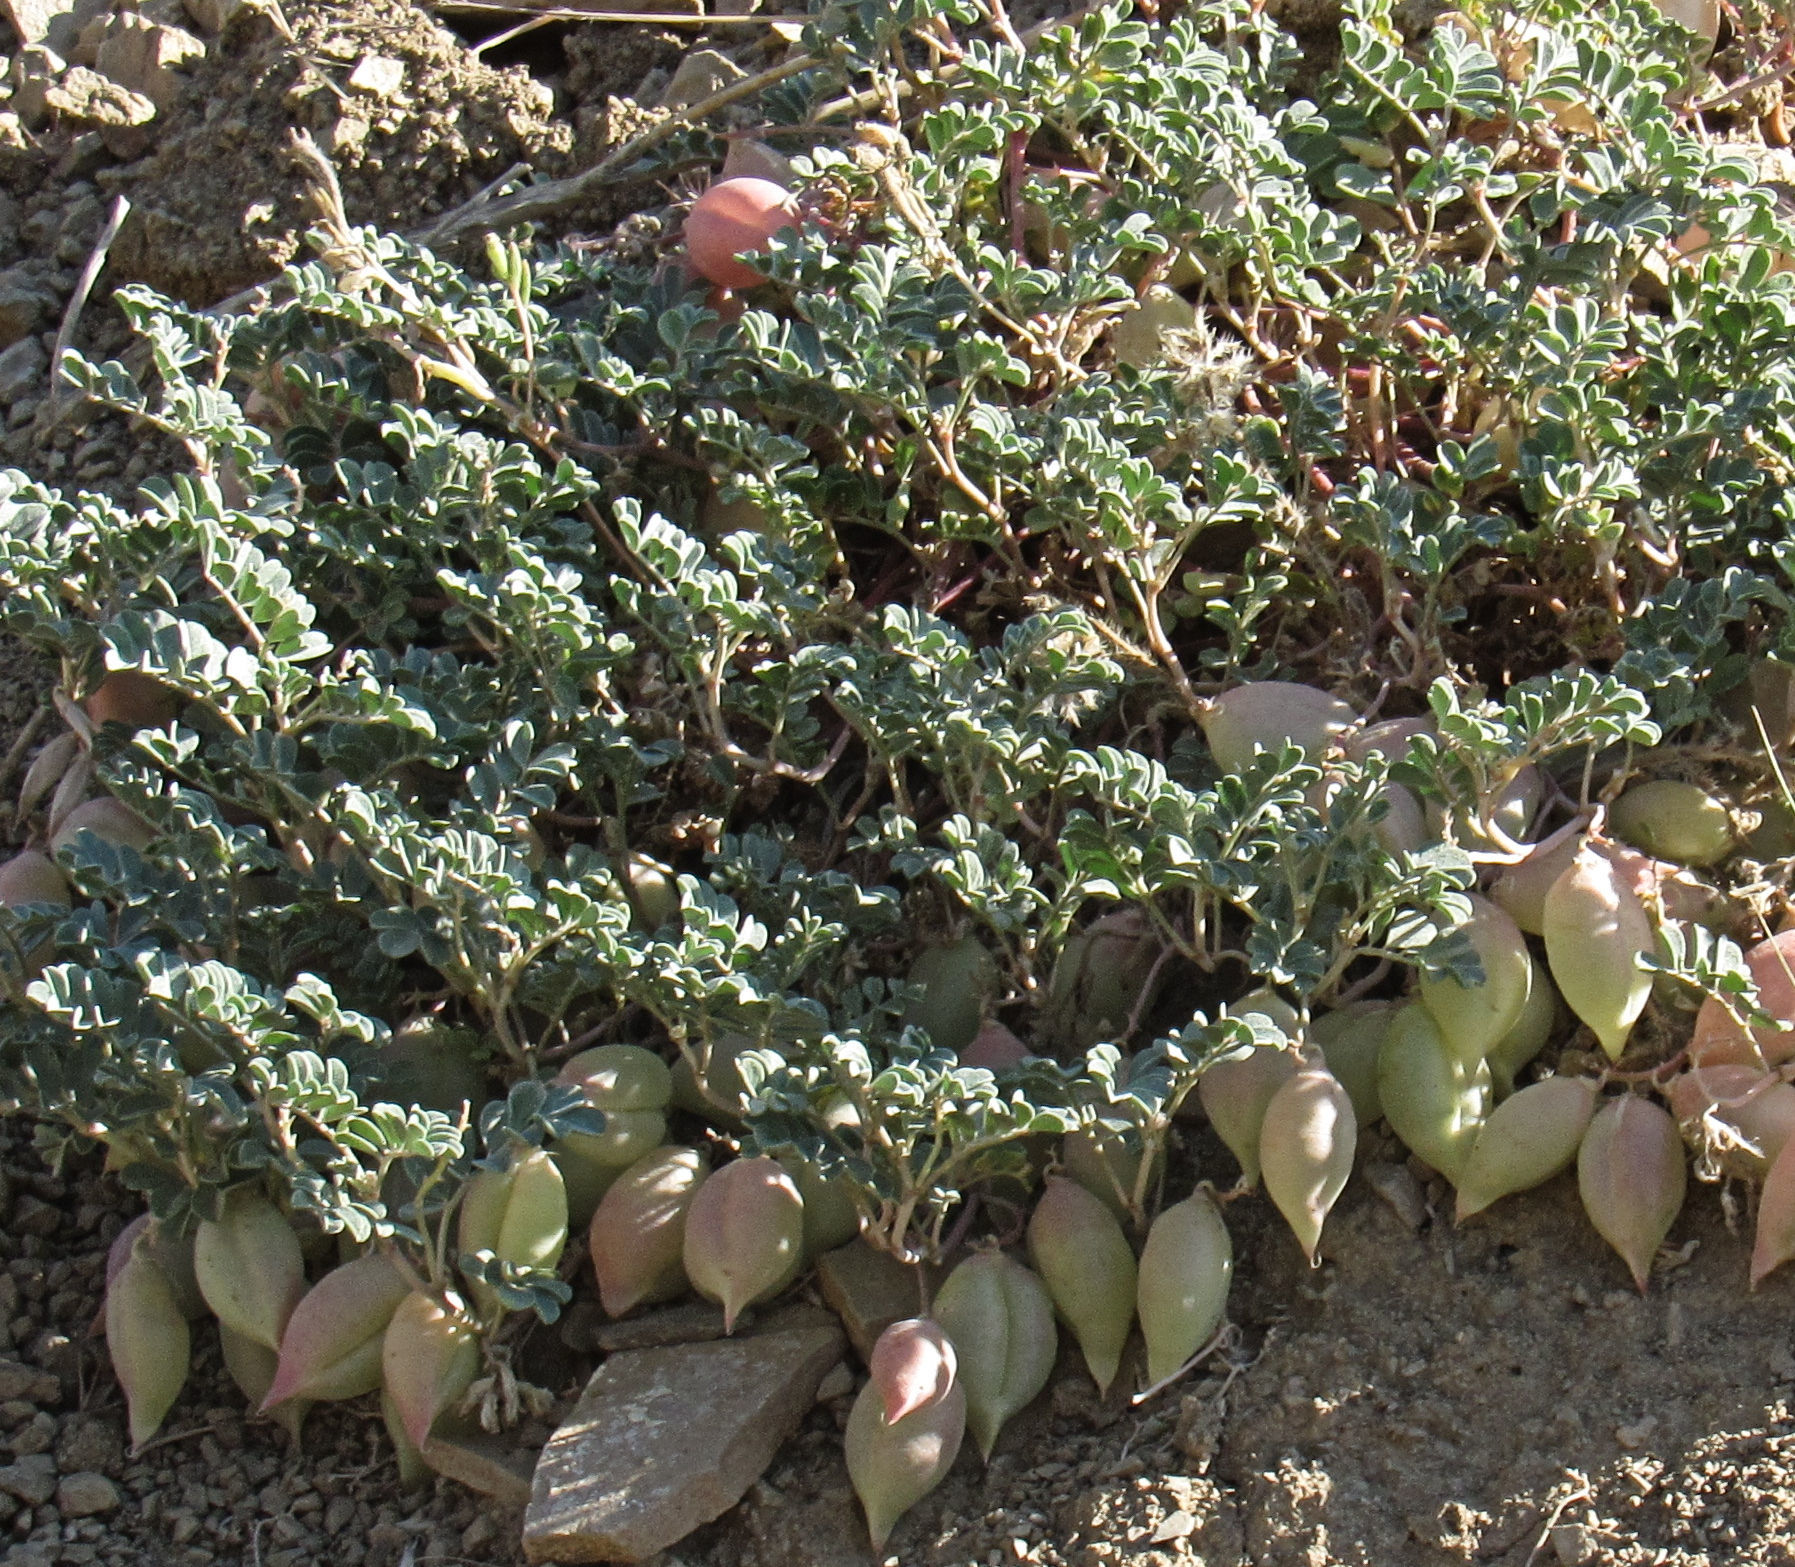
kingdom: Plantae
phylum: Tracheophyta
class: Magnoliopsida
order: Fabales
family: Fabaceae
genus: Astragalus
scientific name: Astragalus amblytropis
